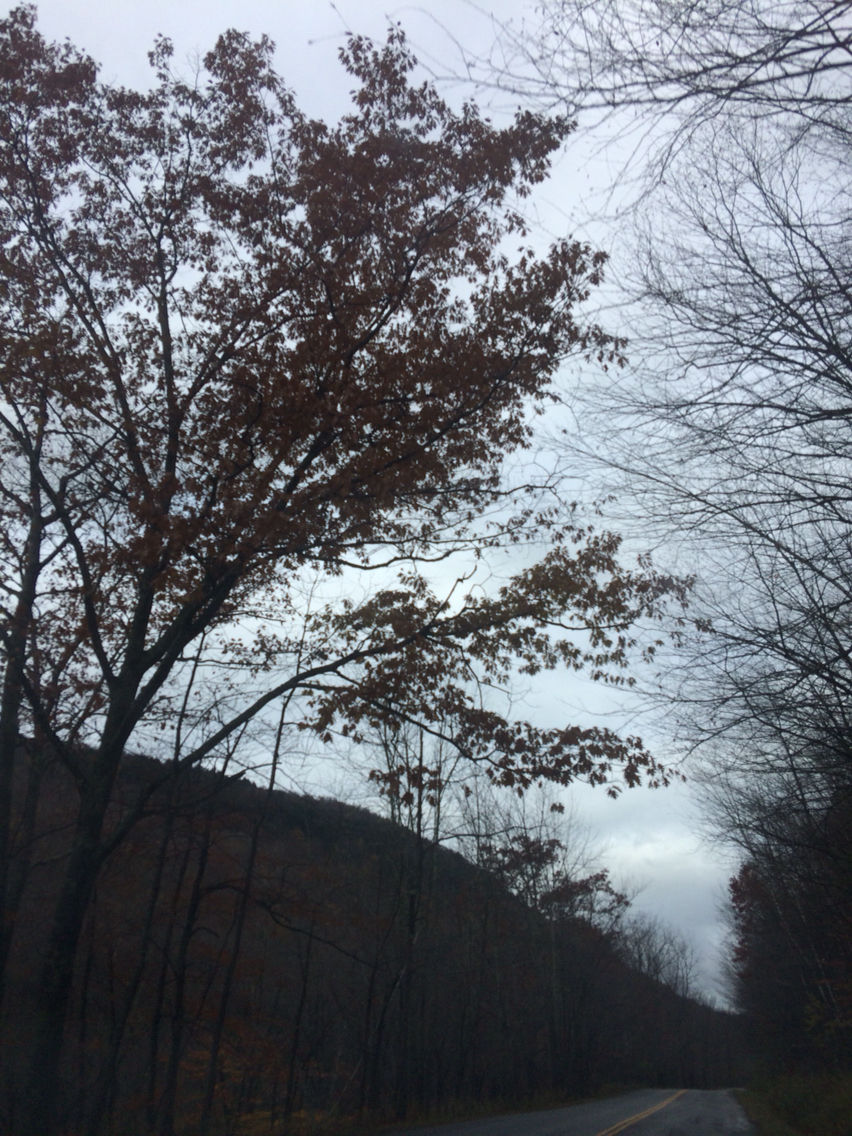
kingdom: Plantae
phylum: Tracheophyta
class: Magnoliopsida
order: Fagales
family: Fagaceae
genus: Quercus
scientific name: Quercus rubra
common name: Red oak
